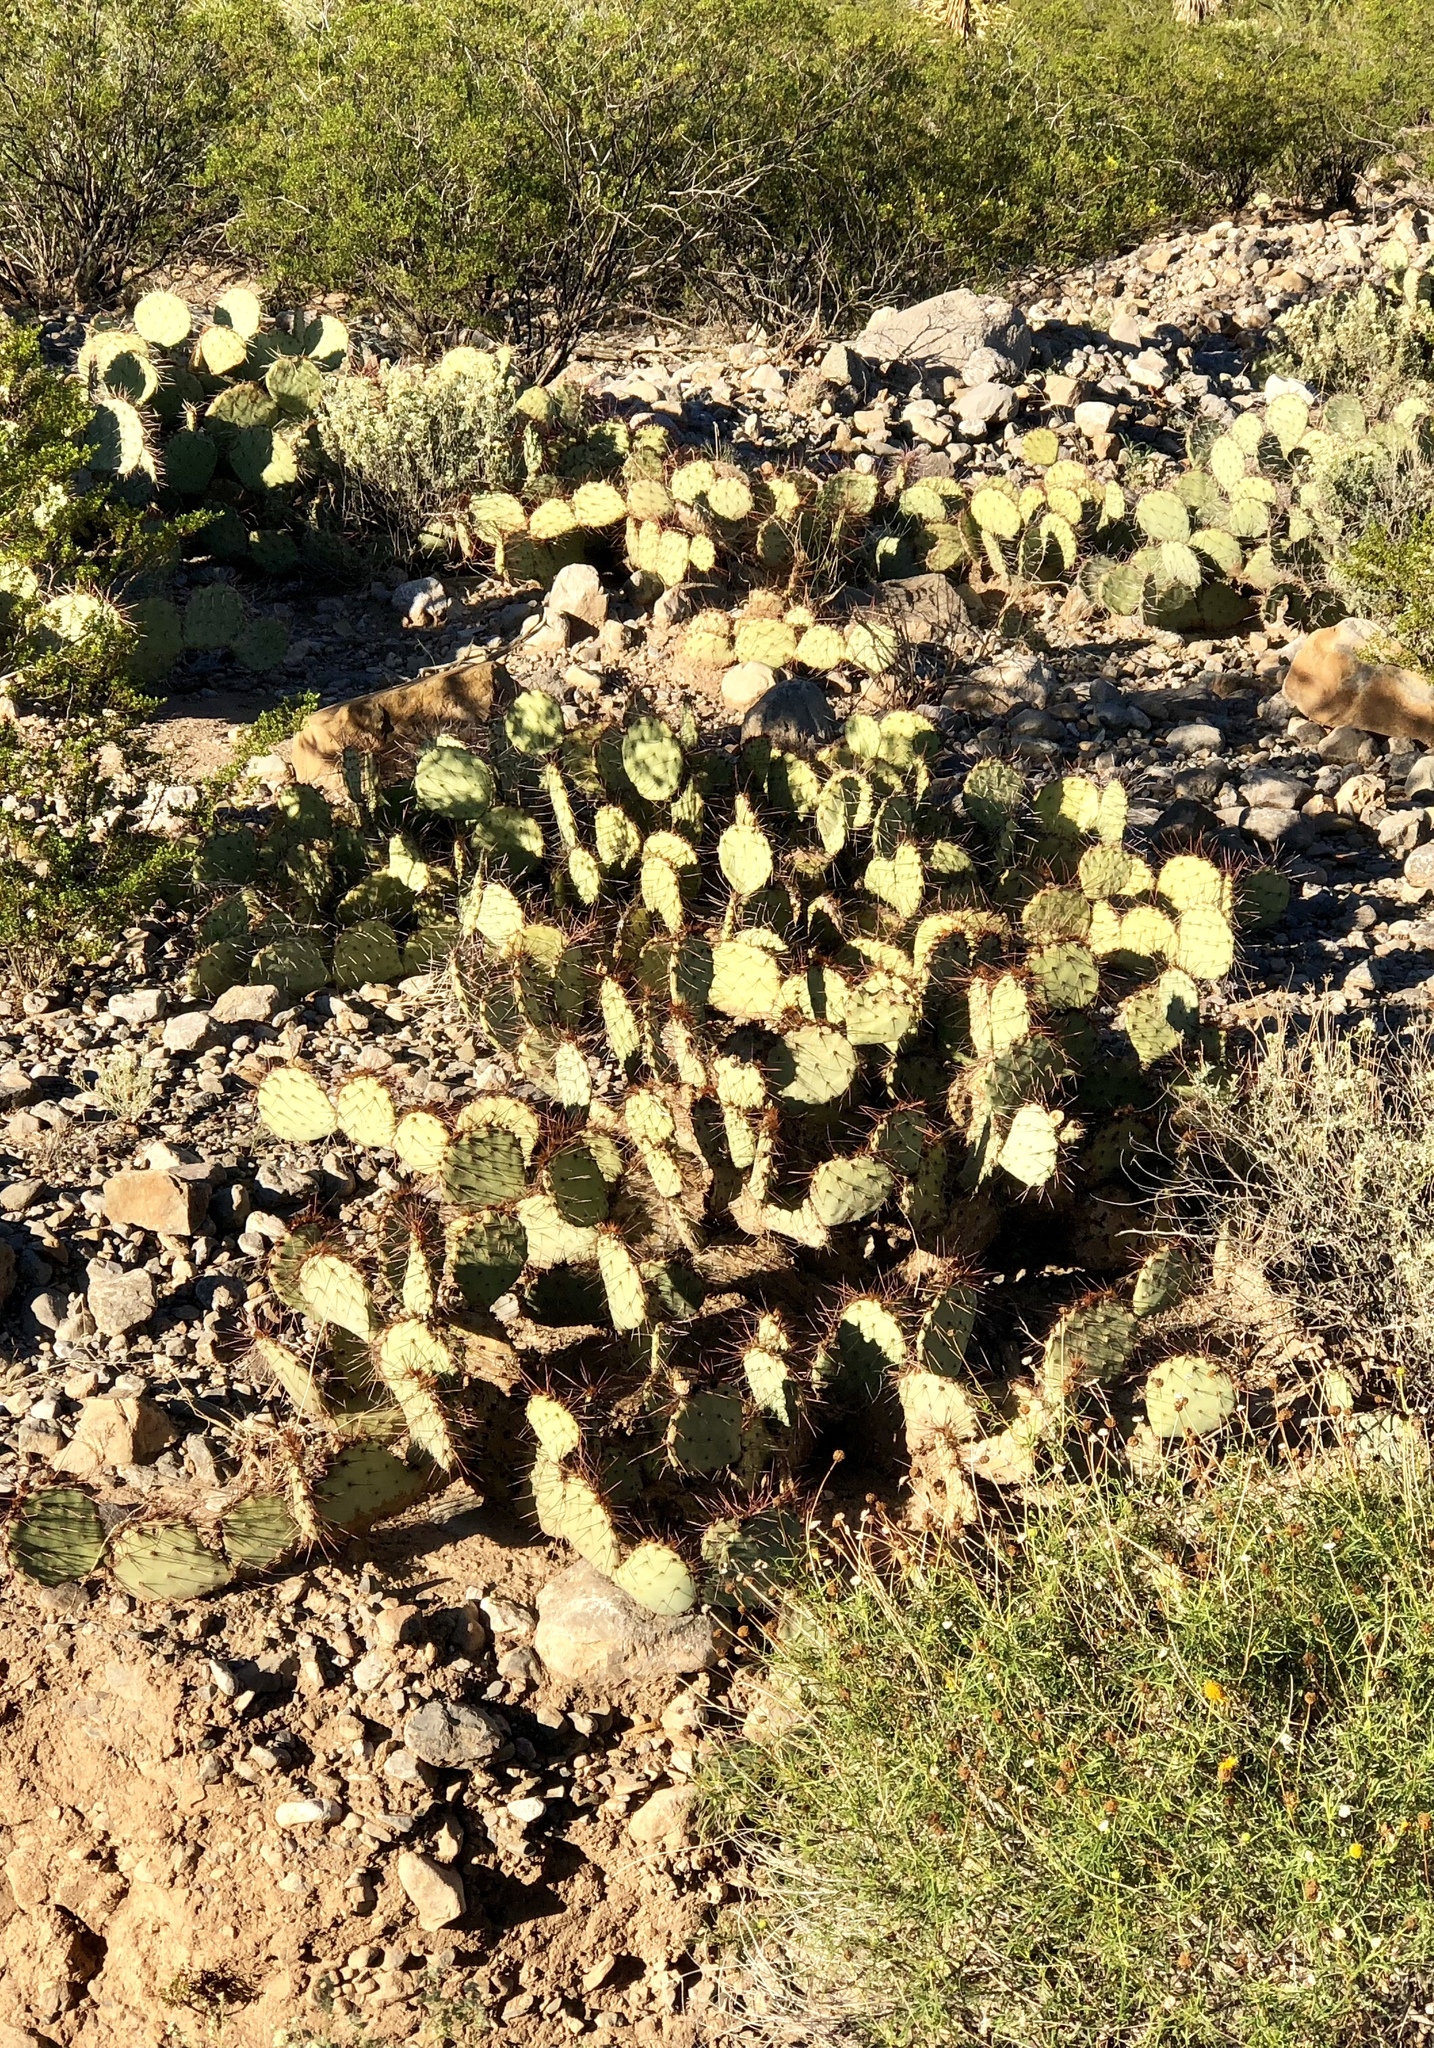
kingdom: Plantae
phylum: Tracheophyta
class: Magnoliopsida
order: Caryophyllales
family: Cactaceae
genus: Opuntia
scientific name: Opuntia phaeacantha
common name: New mexico prickly-pear
